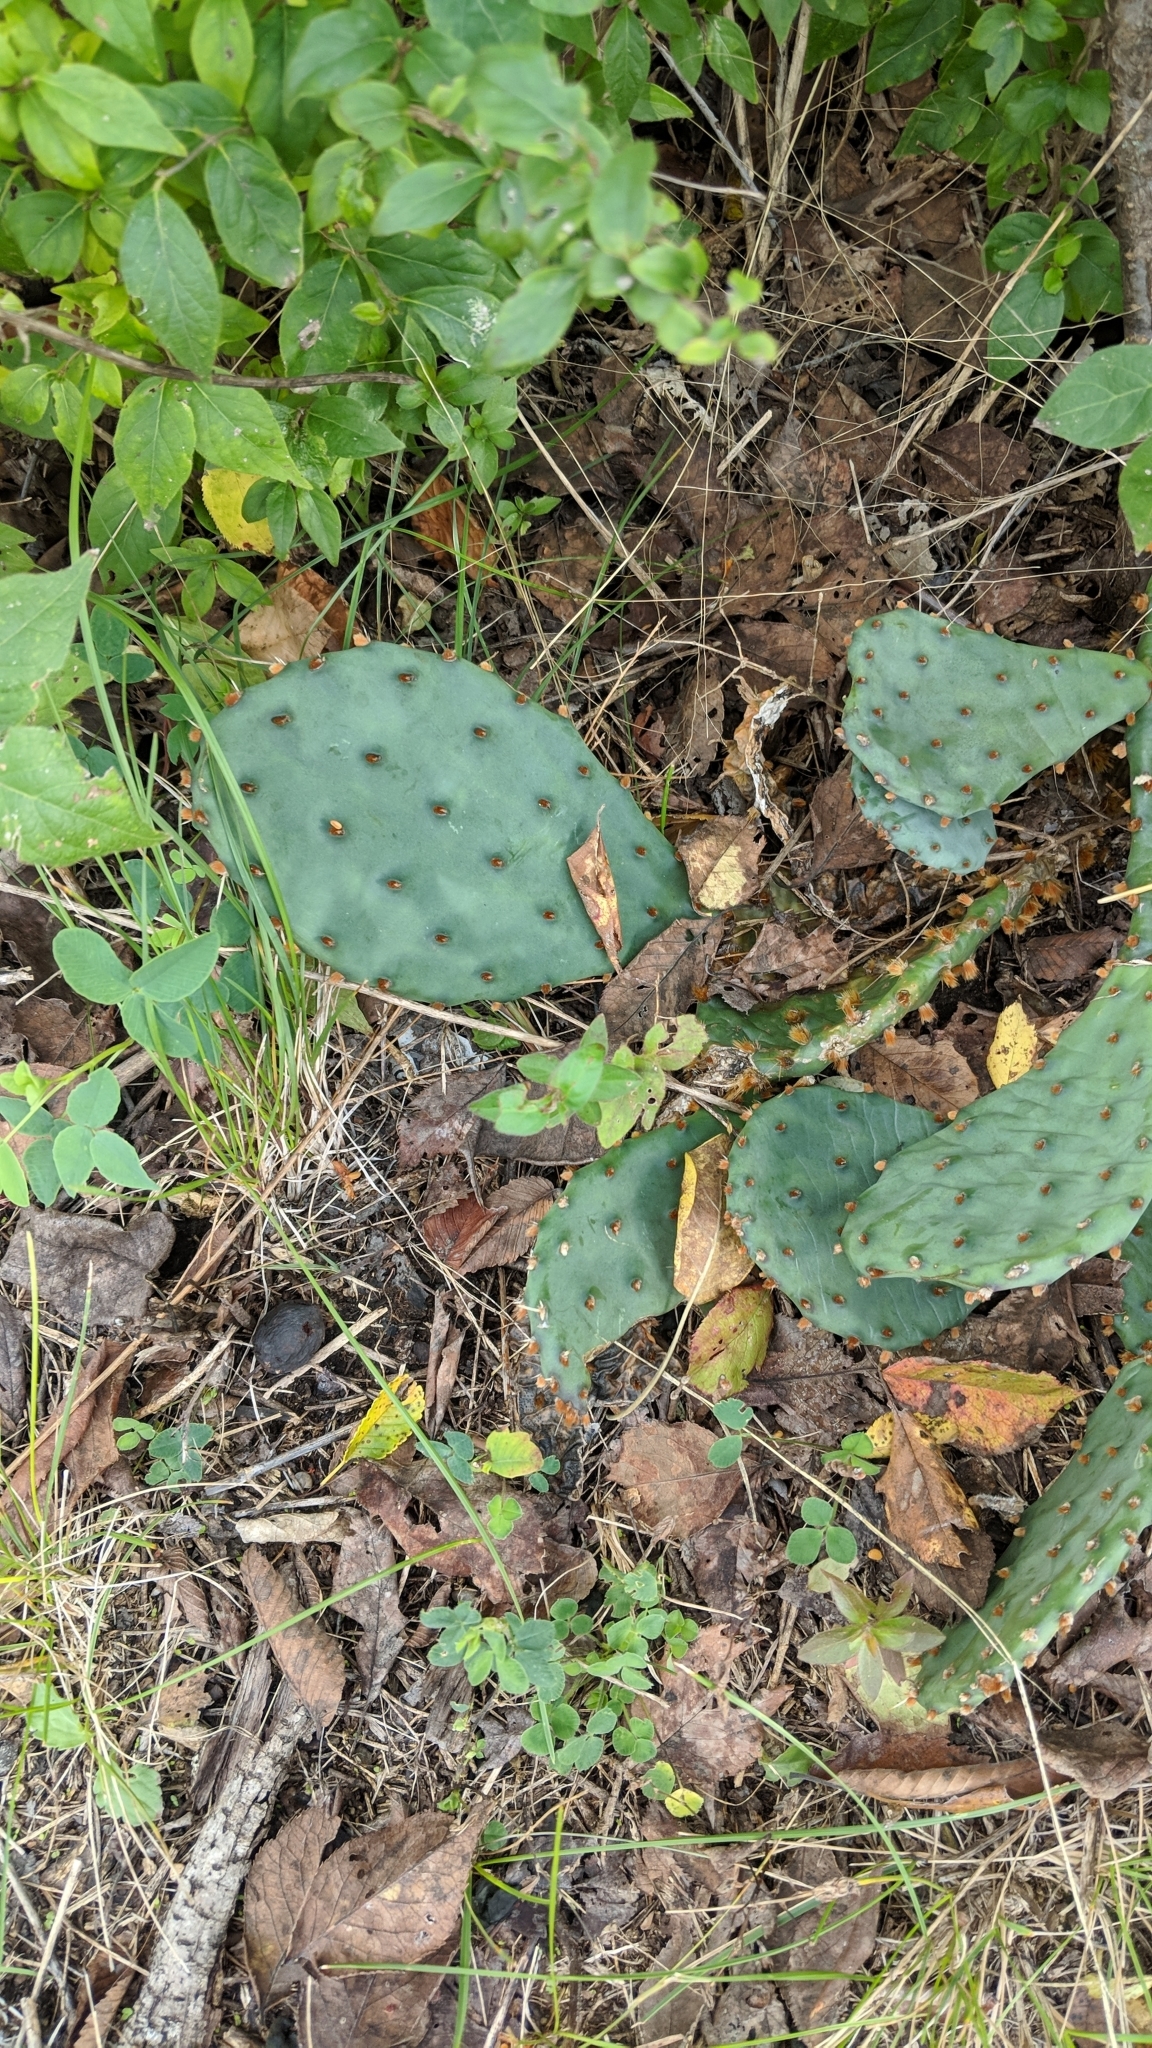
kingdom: Plantae
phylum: Tracheophyta
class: Magnoliopsida
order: Caryophyllales
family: Cactaceae
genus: Opuntia
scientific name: Opuntia macrorhiza
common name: Grassland pricklypear
